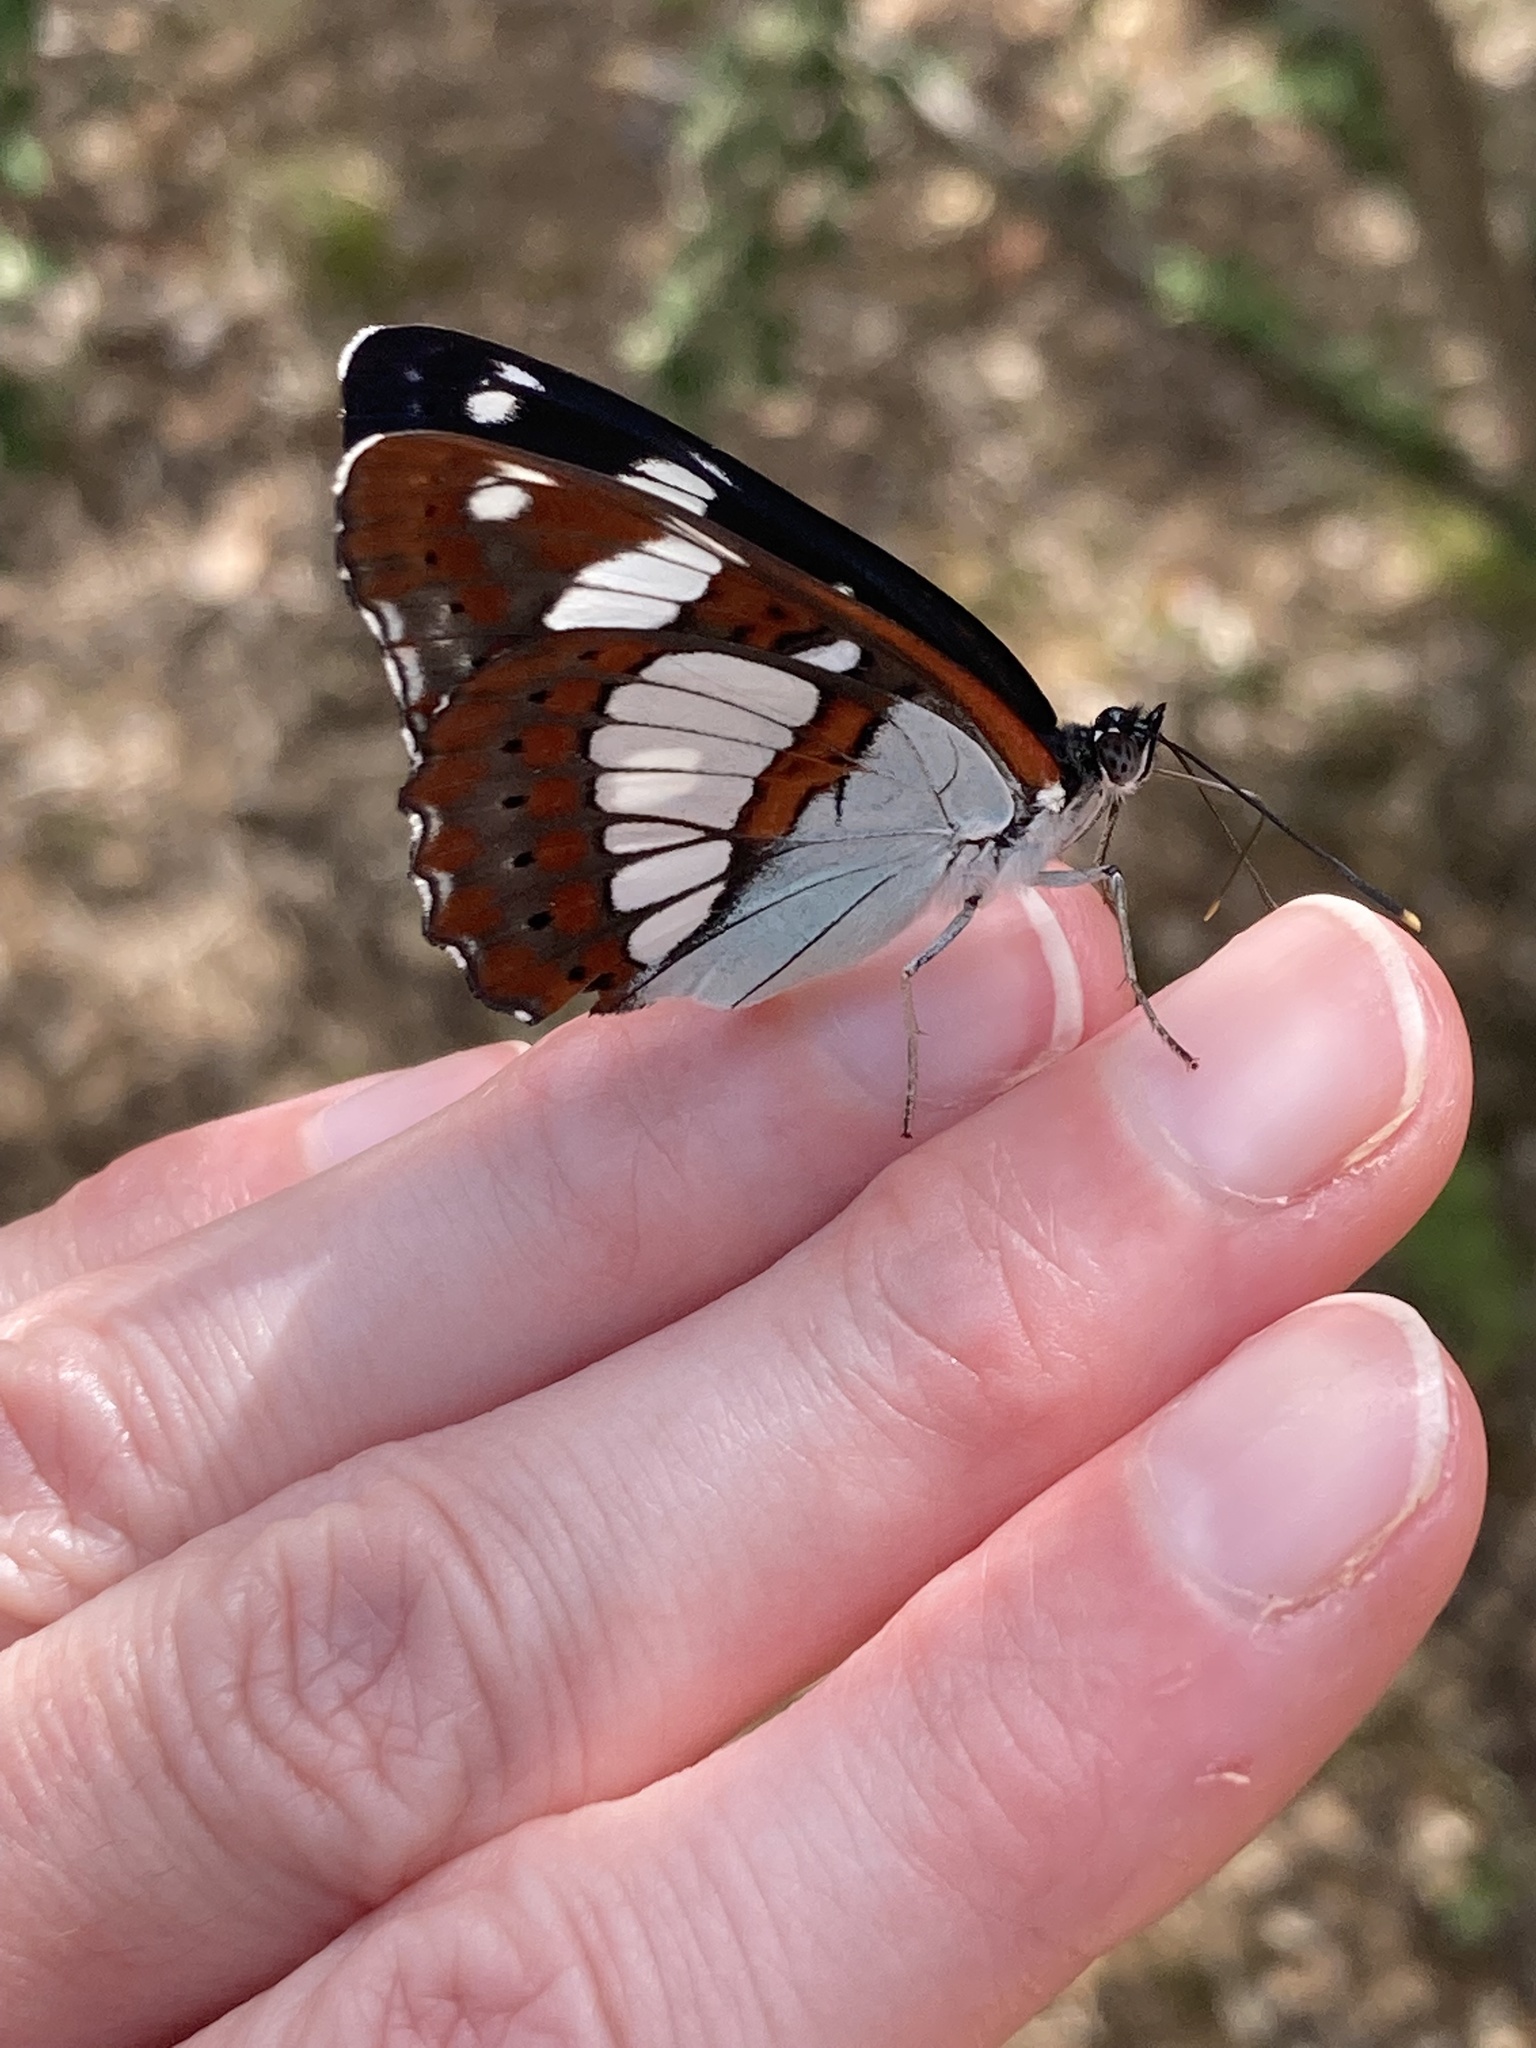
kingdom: Animalia
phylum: Arthropoda
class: Insecta
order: Lepidoptera
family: Nymphalidae
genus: Limenitis
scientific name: Limenitis reducta
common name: Southern white admiral
